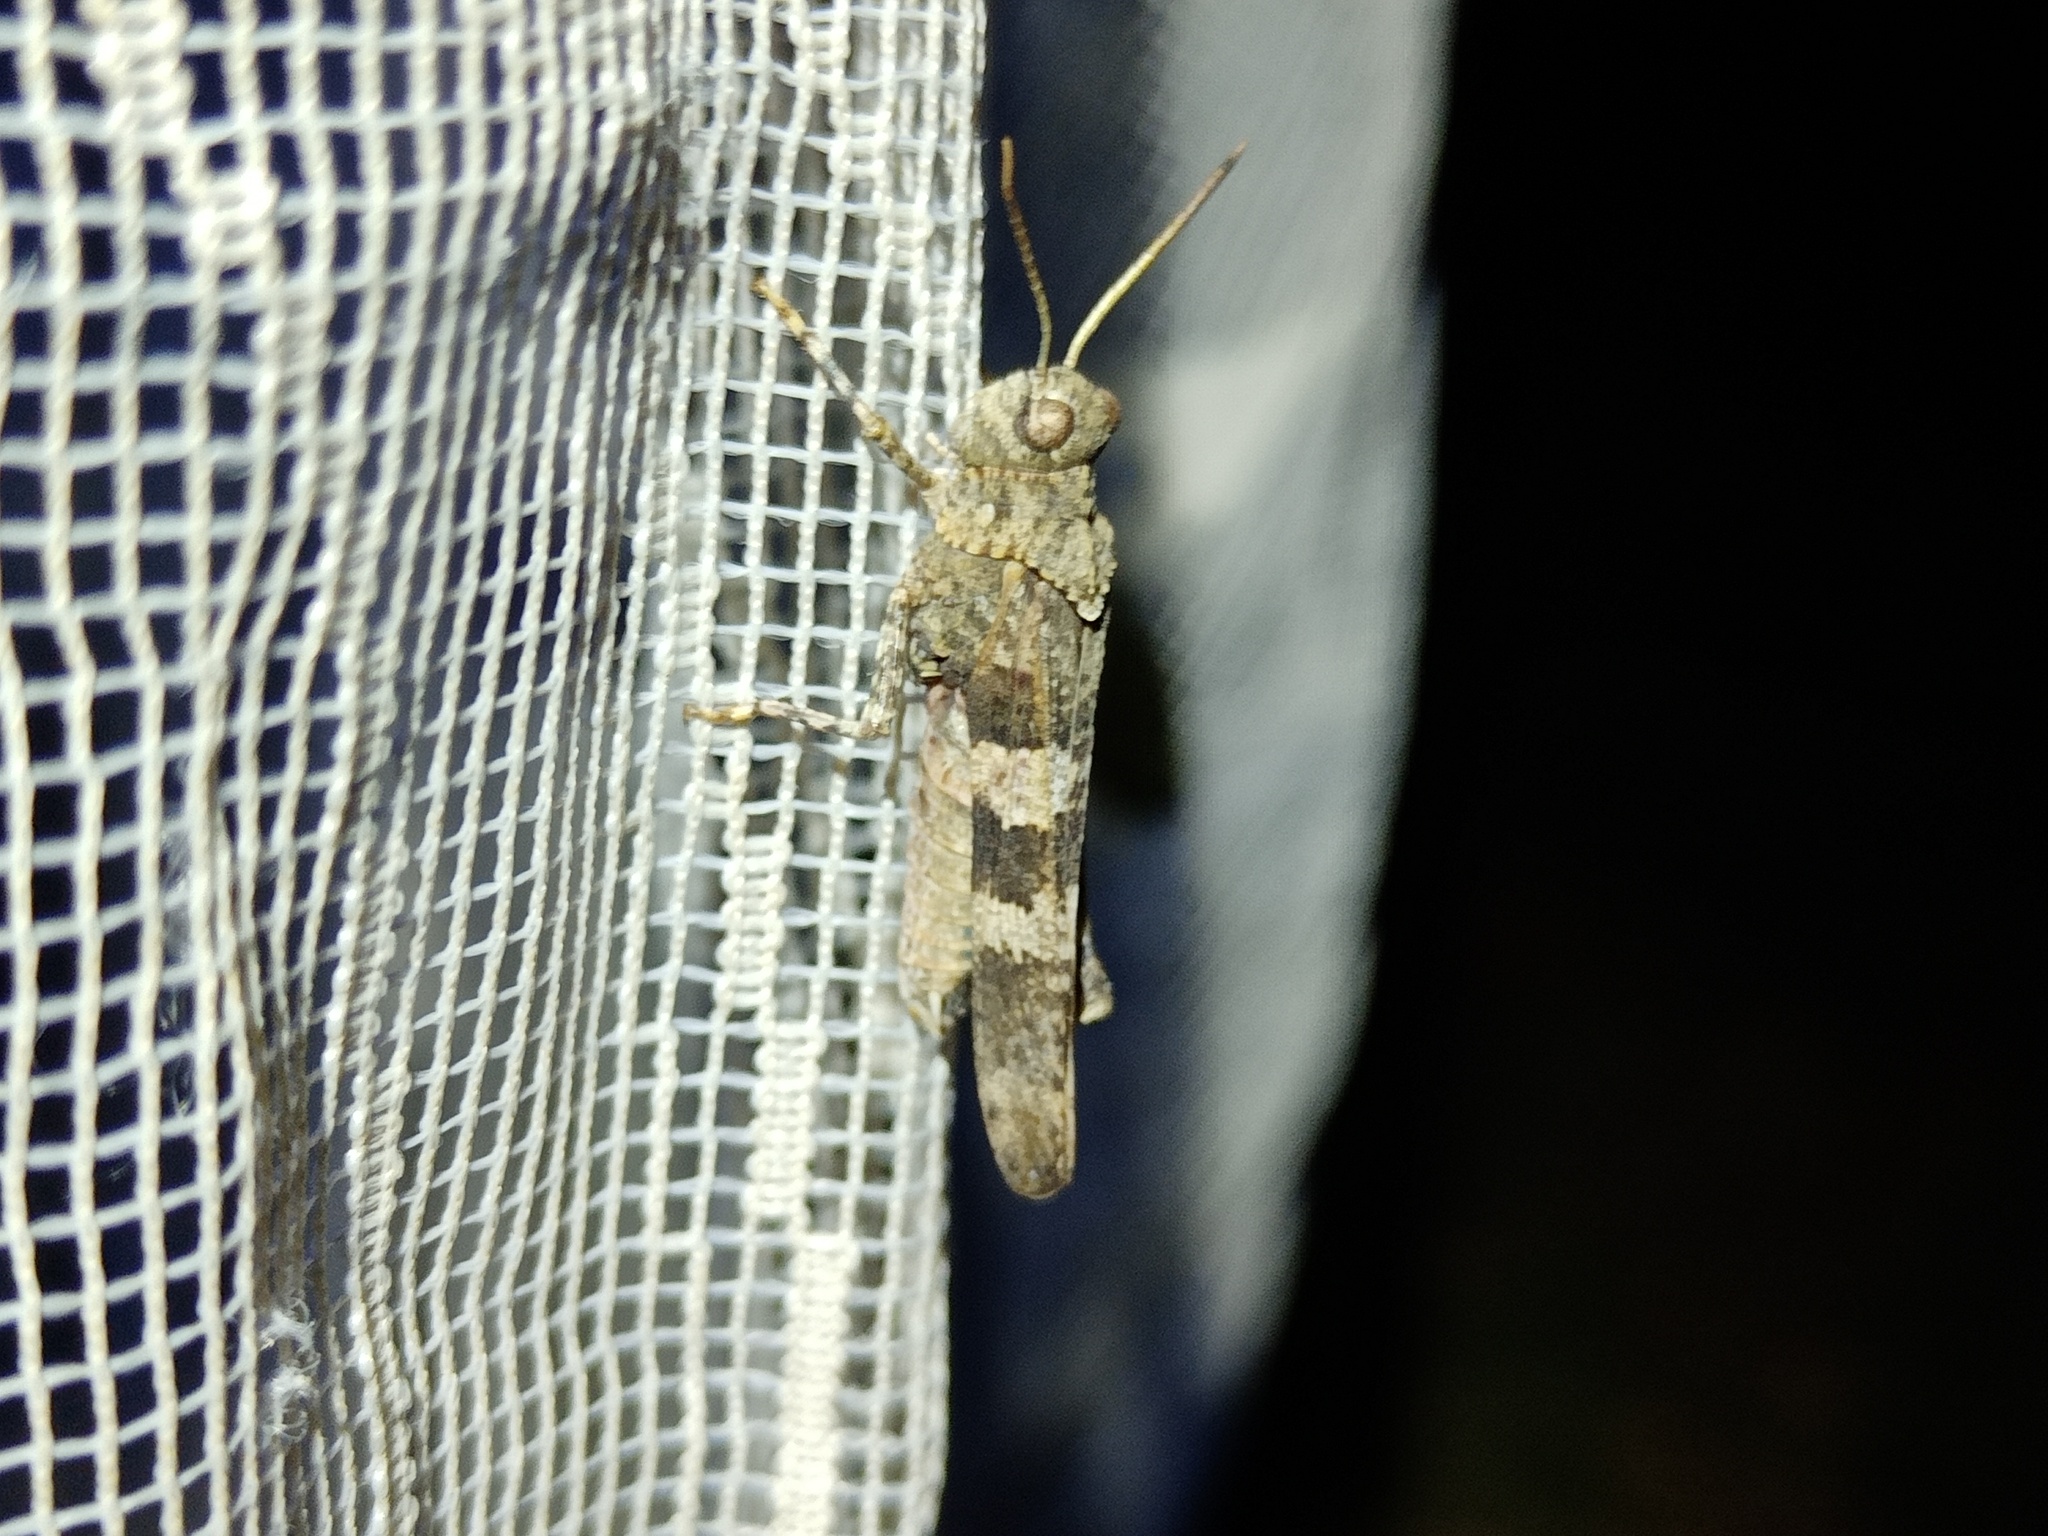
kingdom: Animalia
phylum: Arthropoda
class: Insecta
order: Orthoptera
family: Acrididae
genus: Oedipoda
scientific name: Oedipoda caerulescens
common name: Blue-winged grasshopper
